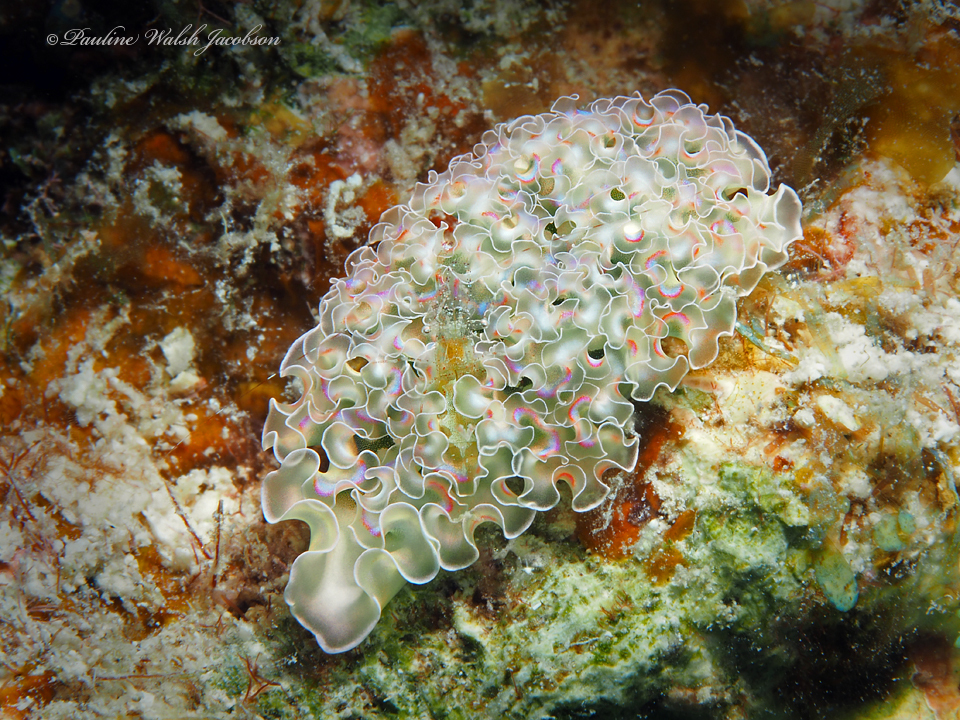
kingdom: Animalia
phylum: Mollusca
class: Gastropoda
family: Plakobranchidae
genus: Elysia
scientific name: Elysia crispata
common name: Lettuce slug
